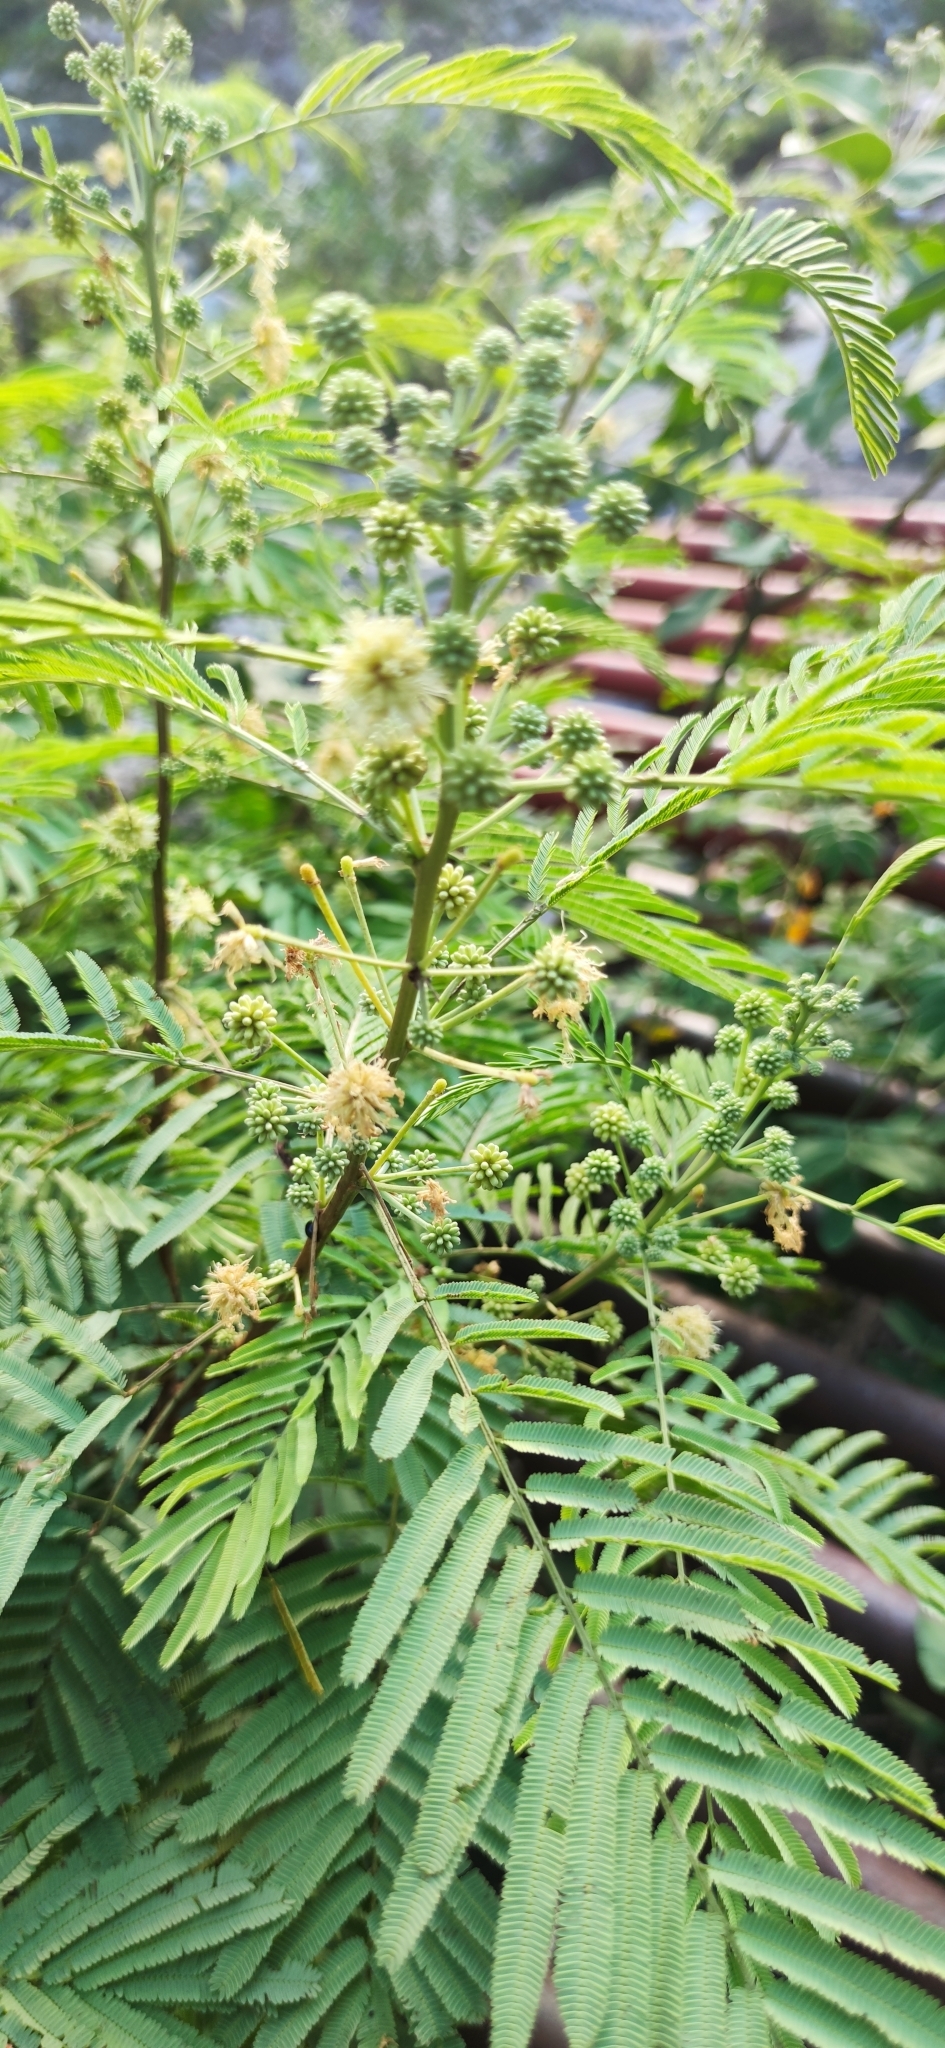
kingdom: Plantae
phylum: Tracheophyta
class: Magnoliopsida
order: Fabales
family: Fabaceae
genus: Acaciella
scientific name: Acaciella angustissima
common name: Prairie acacia
